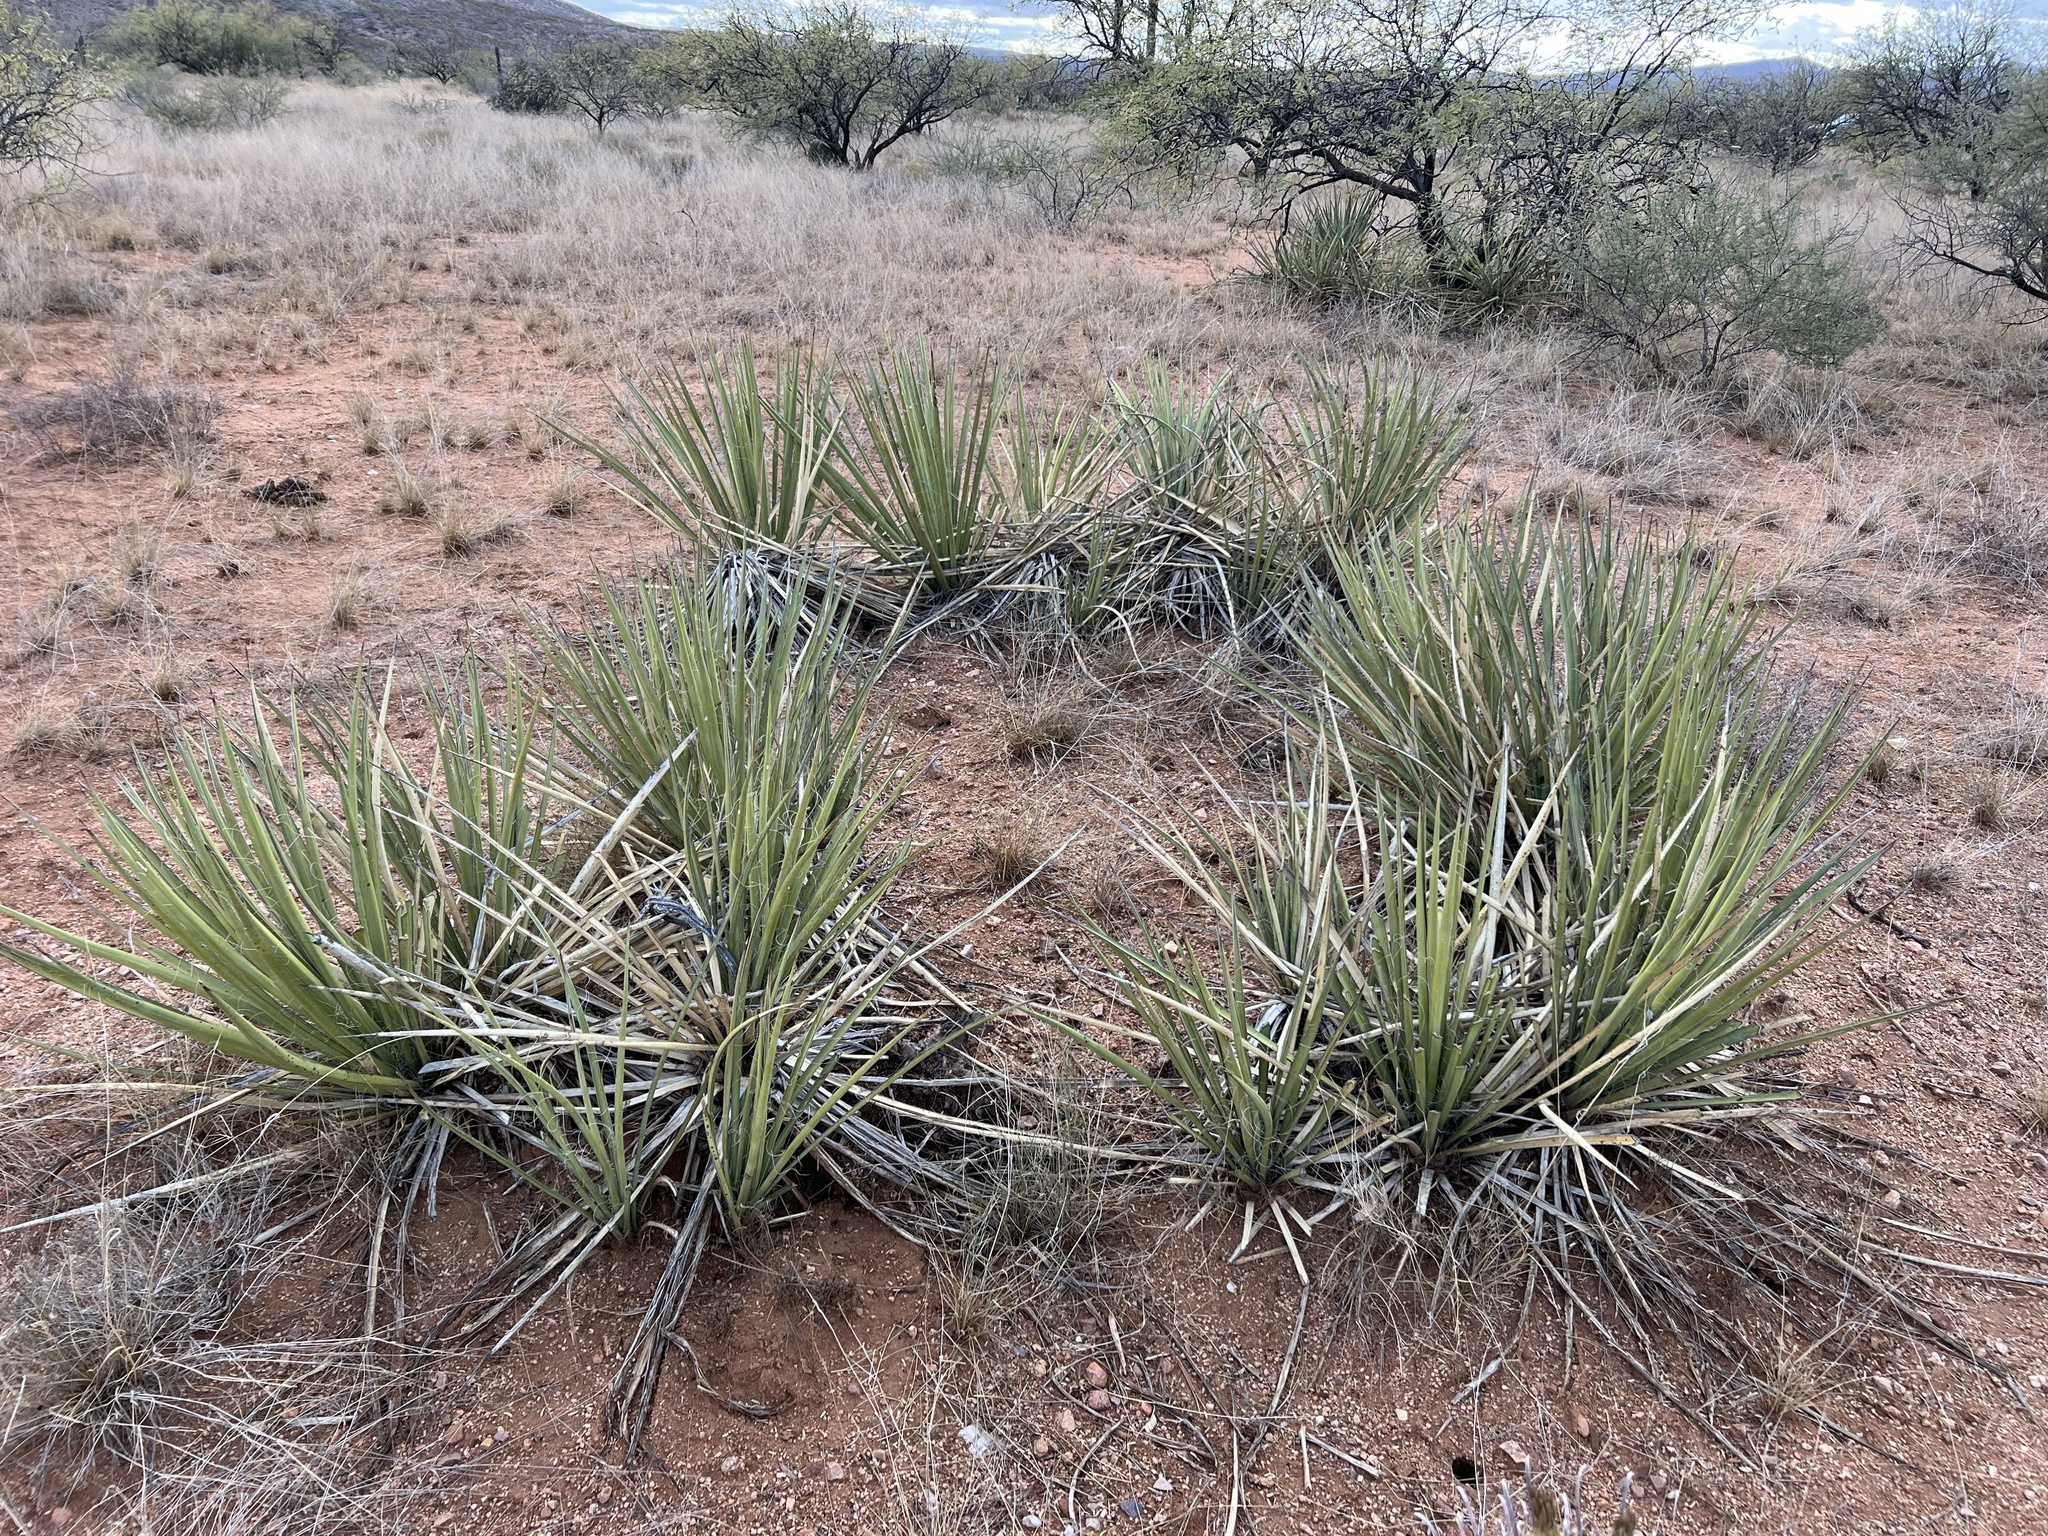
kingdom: Plantae
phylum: Tracheophyta
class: Liliopsida
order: Asparagales
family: Asparagaceae
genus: Yucca
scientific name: Yucca baccata
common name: Banana yucca
